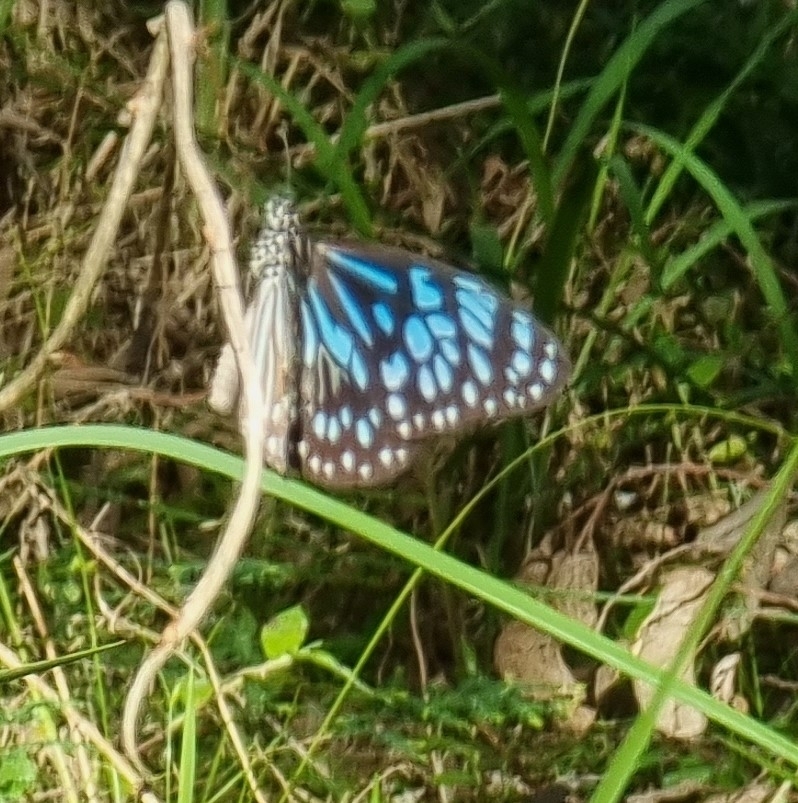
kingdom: Animalia
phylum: Arthropoda
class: Insecta
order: Lepidoptera
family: Nymphalidae
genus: Tirumala
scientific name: Tirumala hamata
